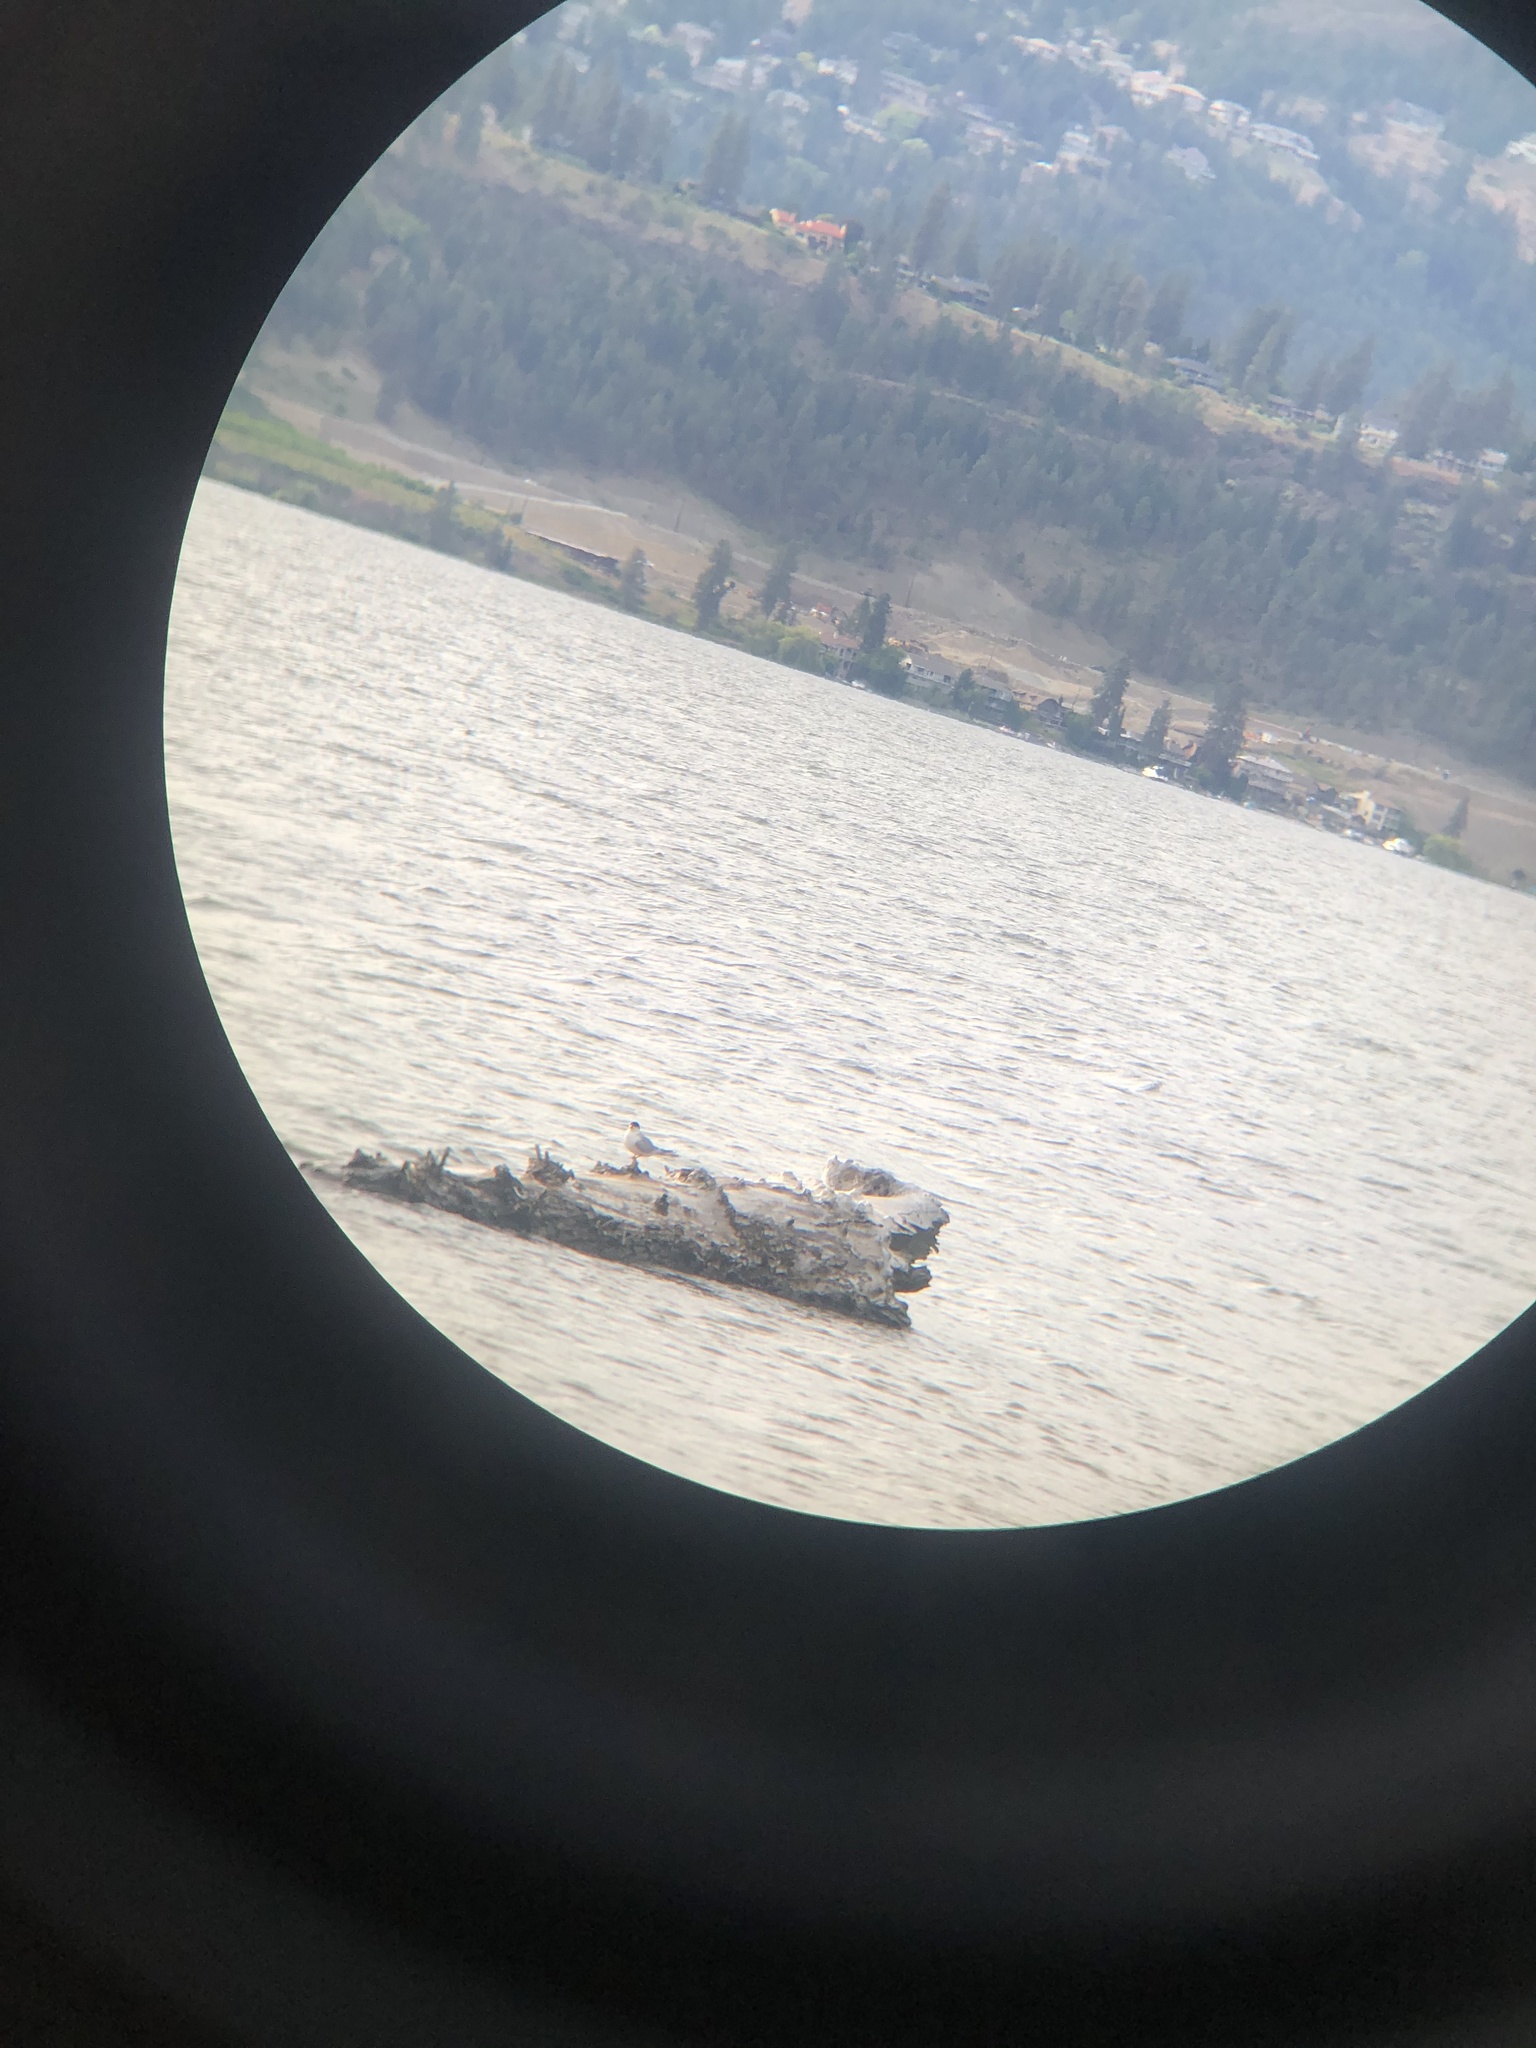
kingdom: Animalia
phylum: Chordata
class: Aves
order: Charadriiformes
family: Laridae
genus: Sterna
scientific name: Sterna forsteri
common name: Forster's tern
